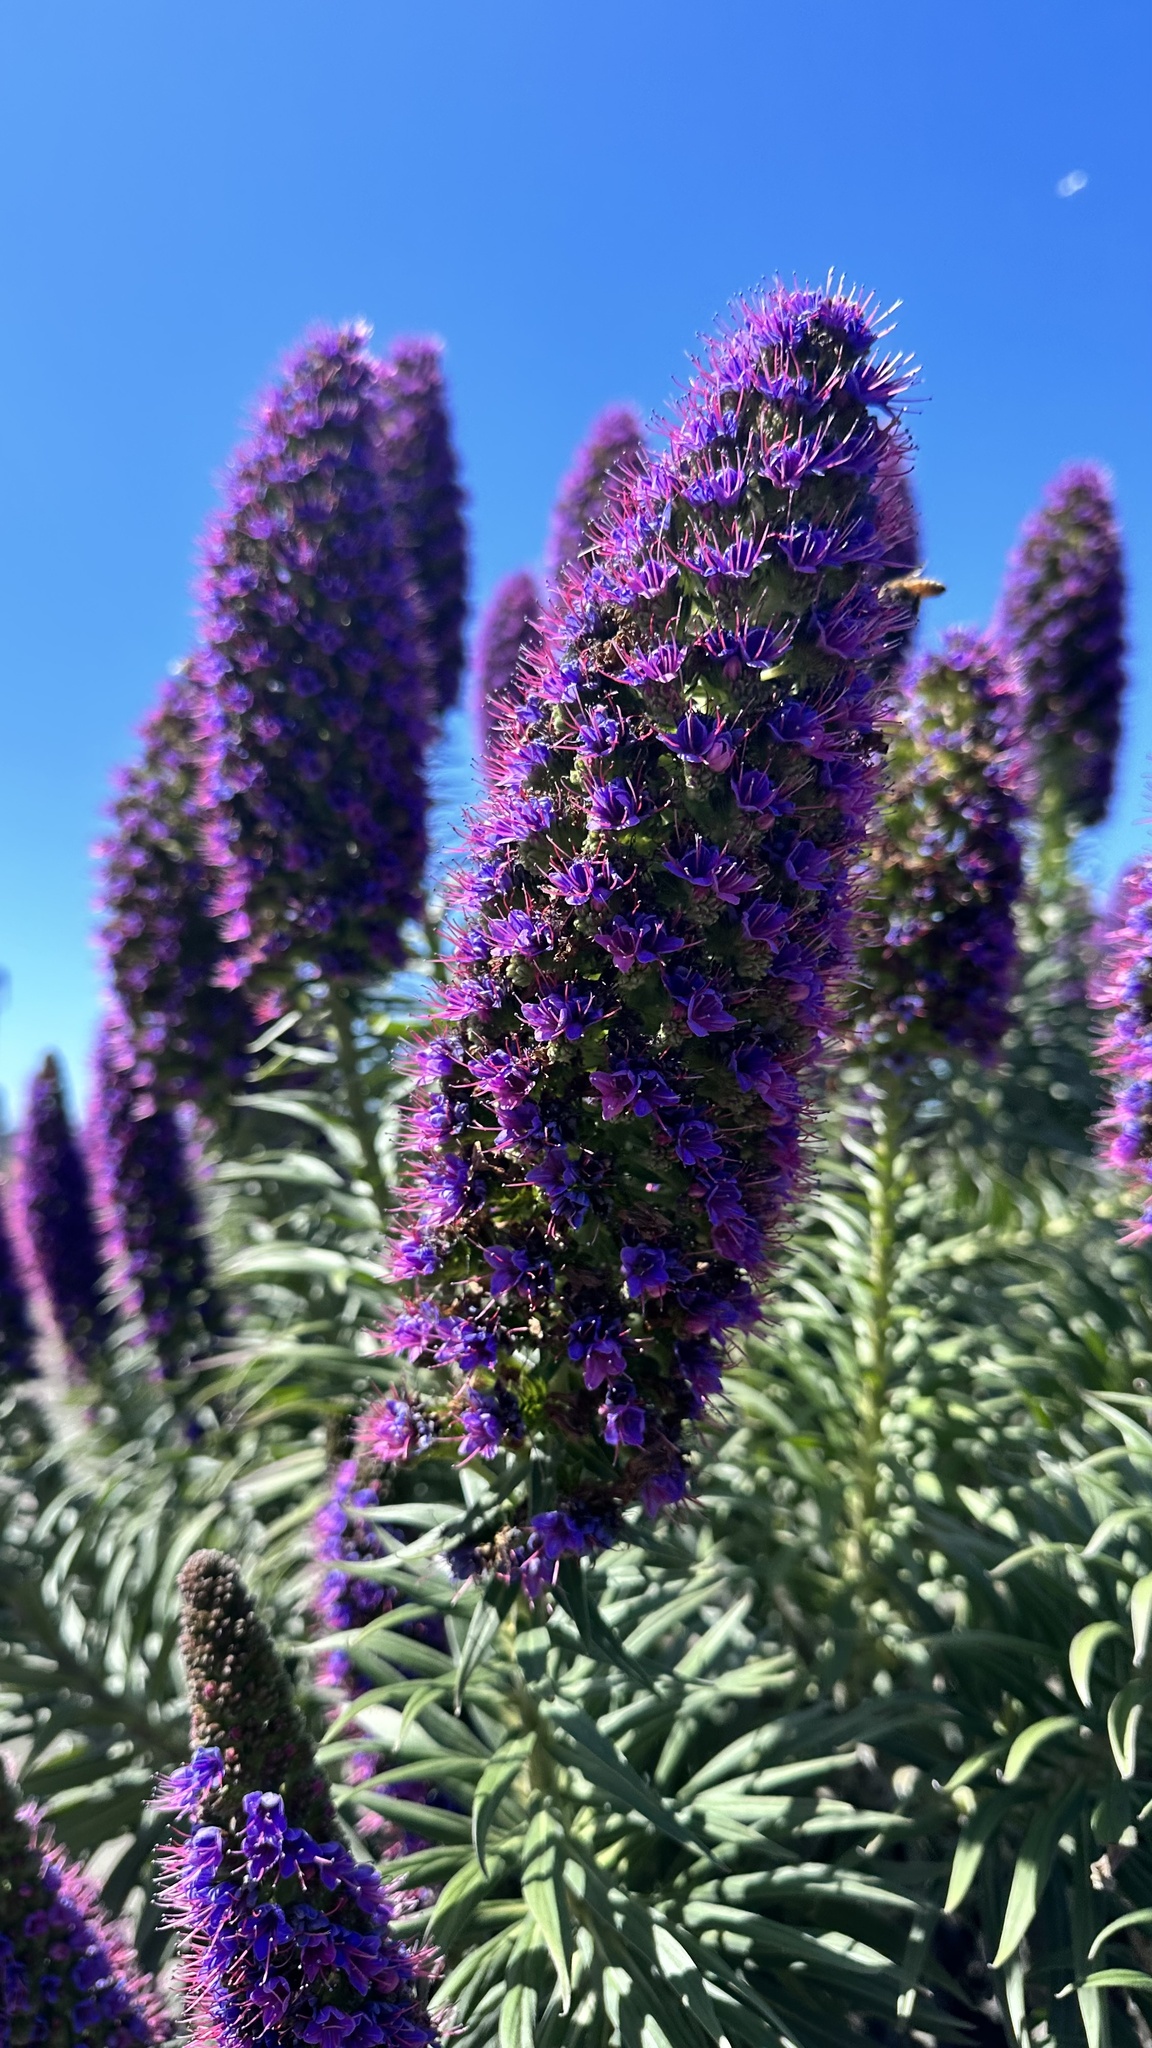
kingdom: Plantae
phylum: Tracheophyta
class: Magnoliopsida
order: Boraginales
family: Boraginaceae
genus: Echium
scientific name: Echium candicans
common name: Pride of madeira
